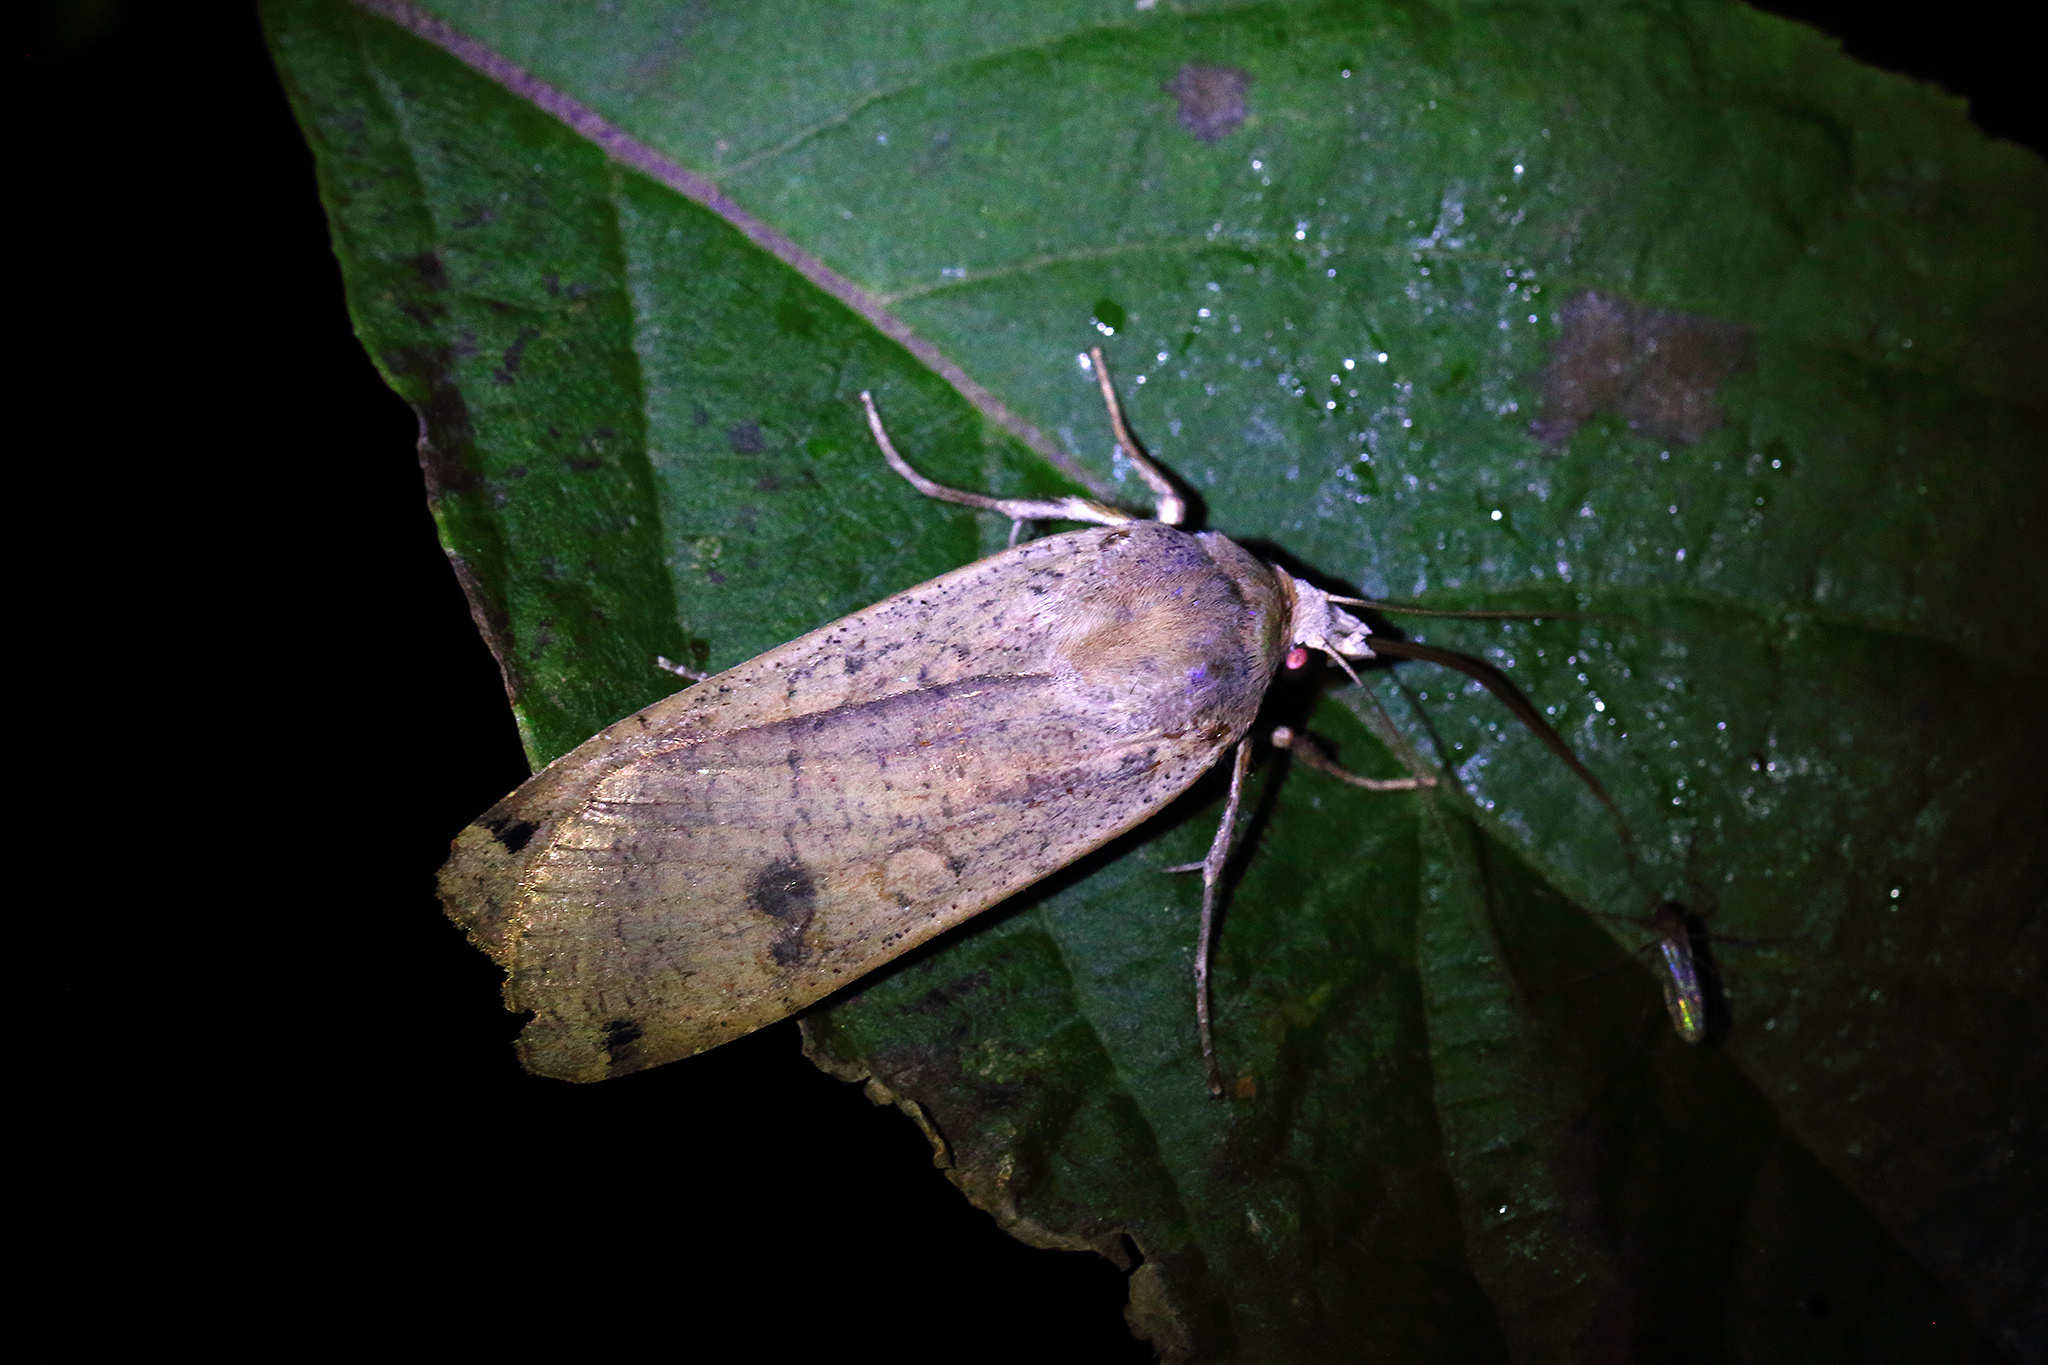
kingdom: Animalia
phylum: Arthropoda
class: Insecta
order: Lepidoptera
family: Noctuidae
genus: Noctua
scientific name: Noctua pronuba
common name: Large yellow underwing
